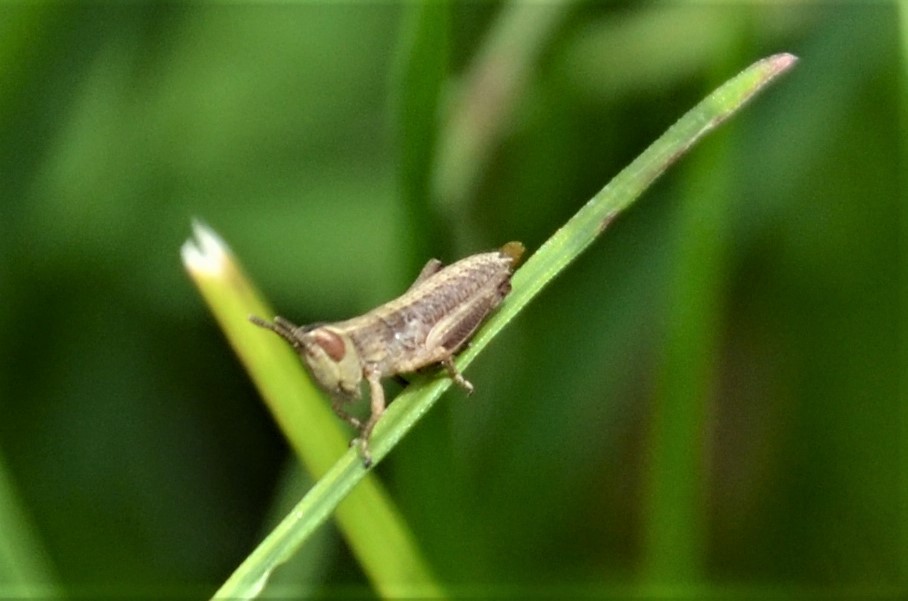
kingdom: Animalia
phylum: Arthropoda
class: Insecta
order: Orthoptera
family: Acrididae
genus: Pseudochorthippus
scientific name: Pseudochorthippus parallelus
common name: Meadow grasshopper
